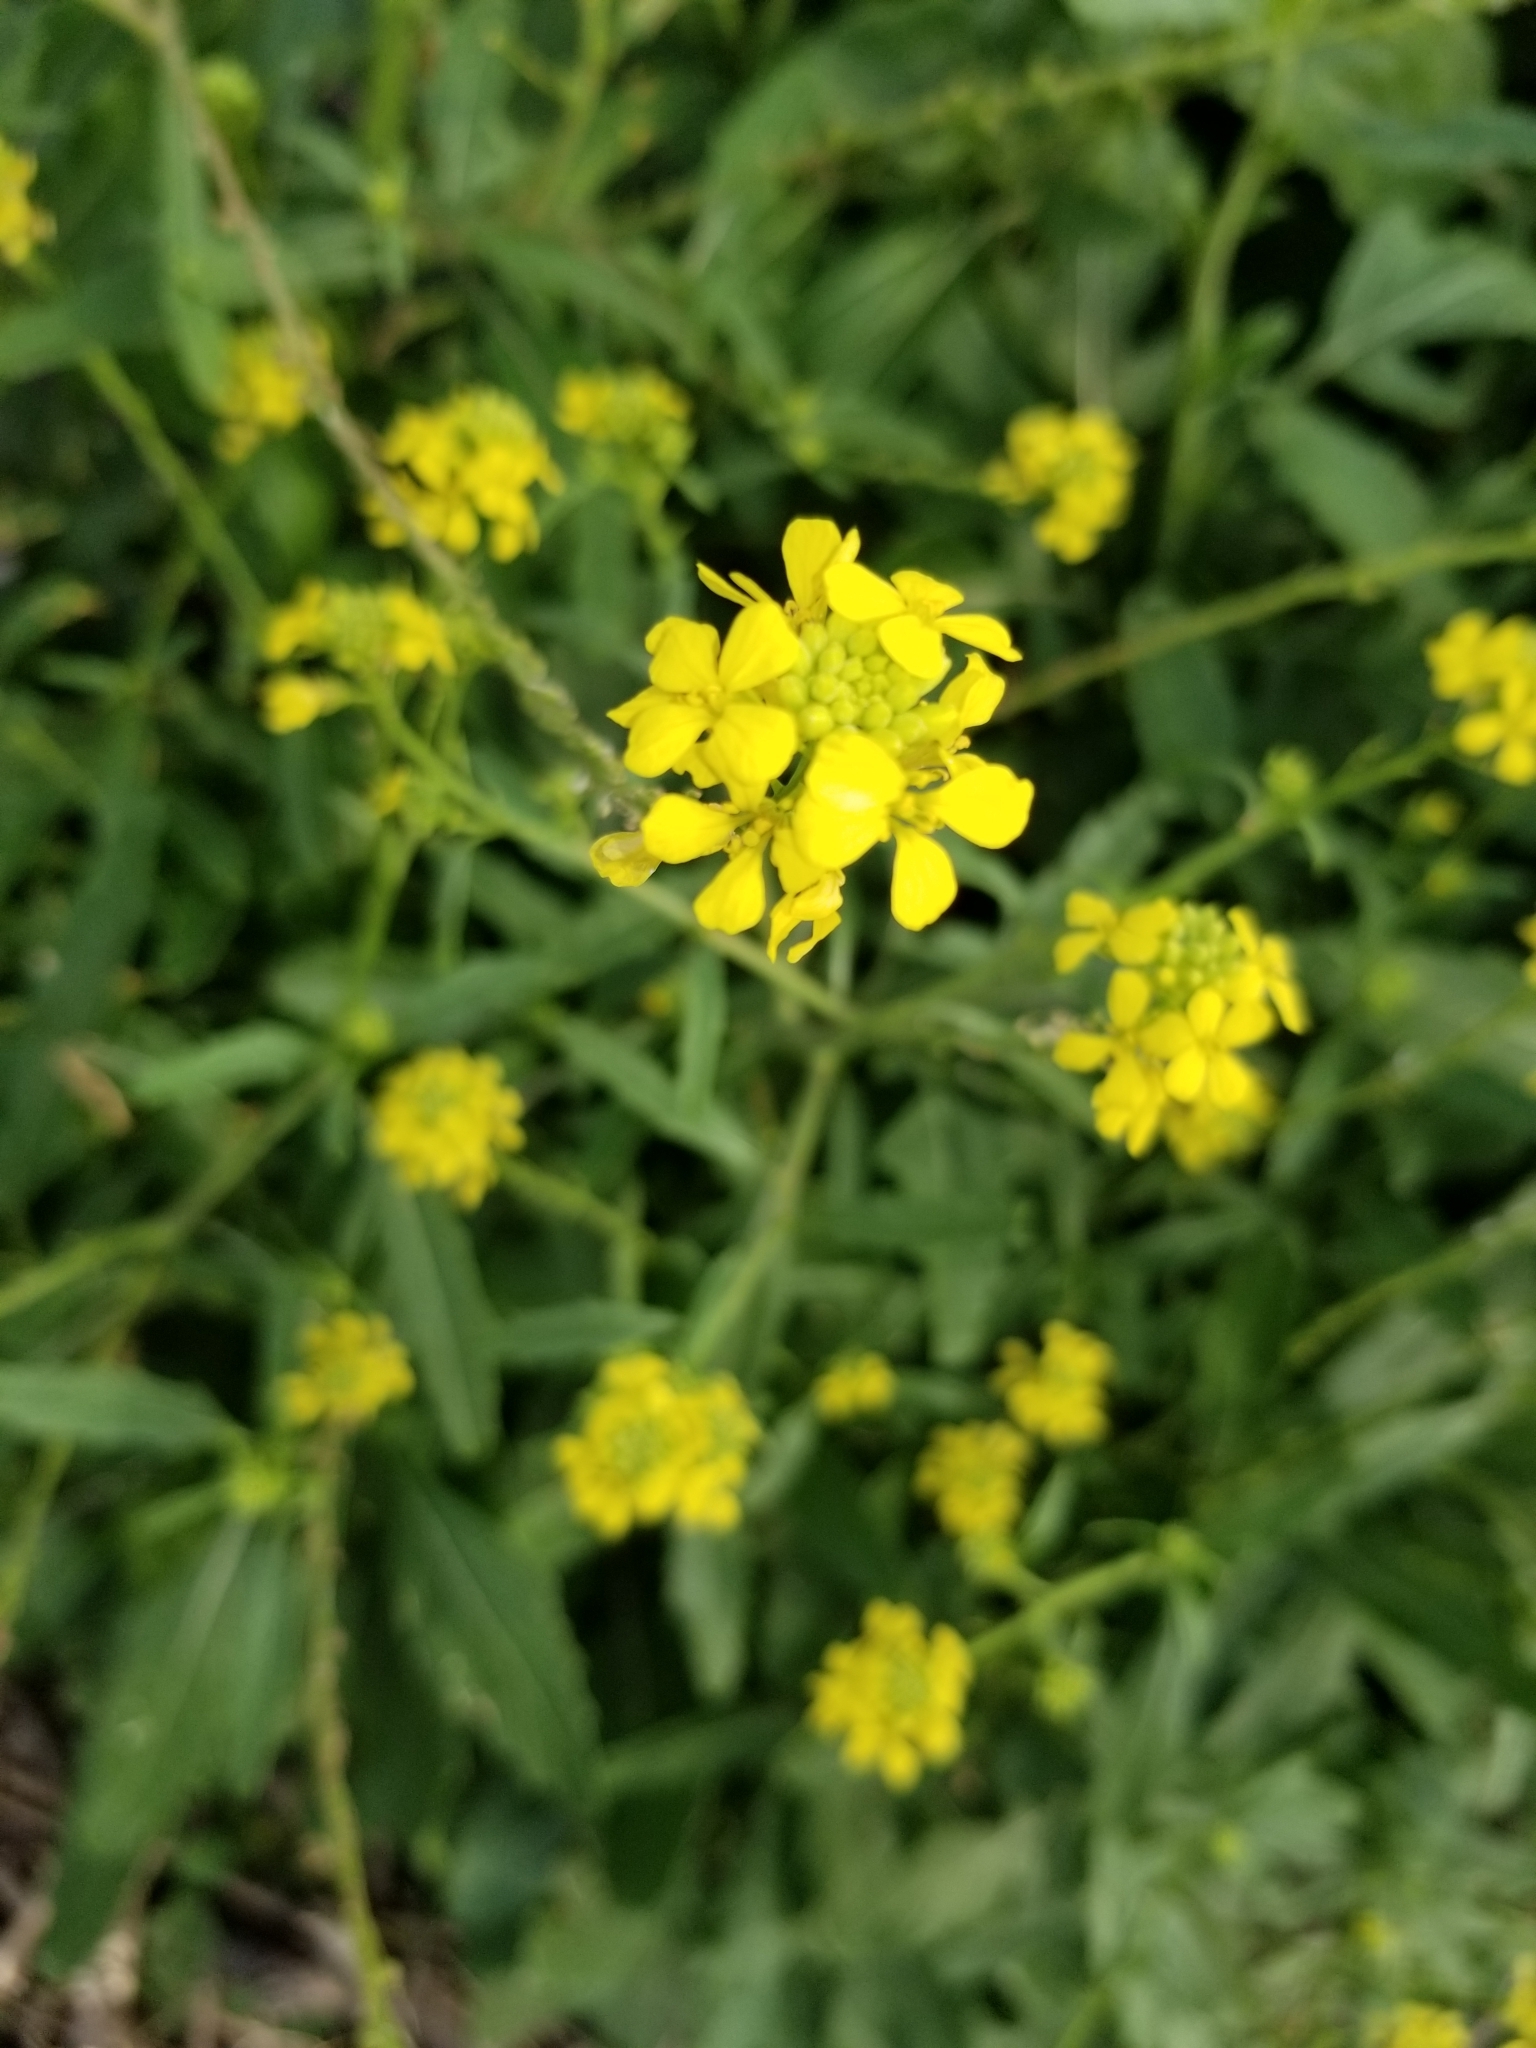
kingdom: Plantae
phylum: Tracheophyta
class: Magnoliopsida
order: Brassicales
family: Brassicaceae
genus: Rapistrum
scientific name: Rapistrum rugosum
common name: Annual bastardcabbage
